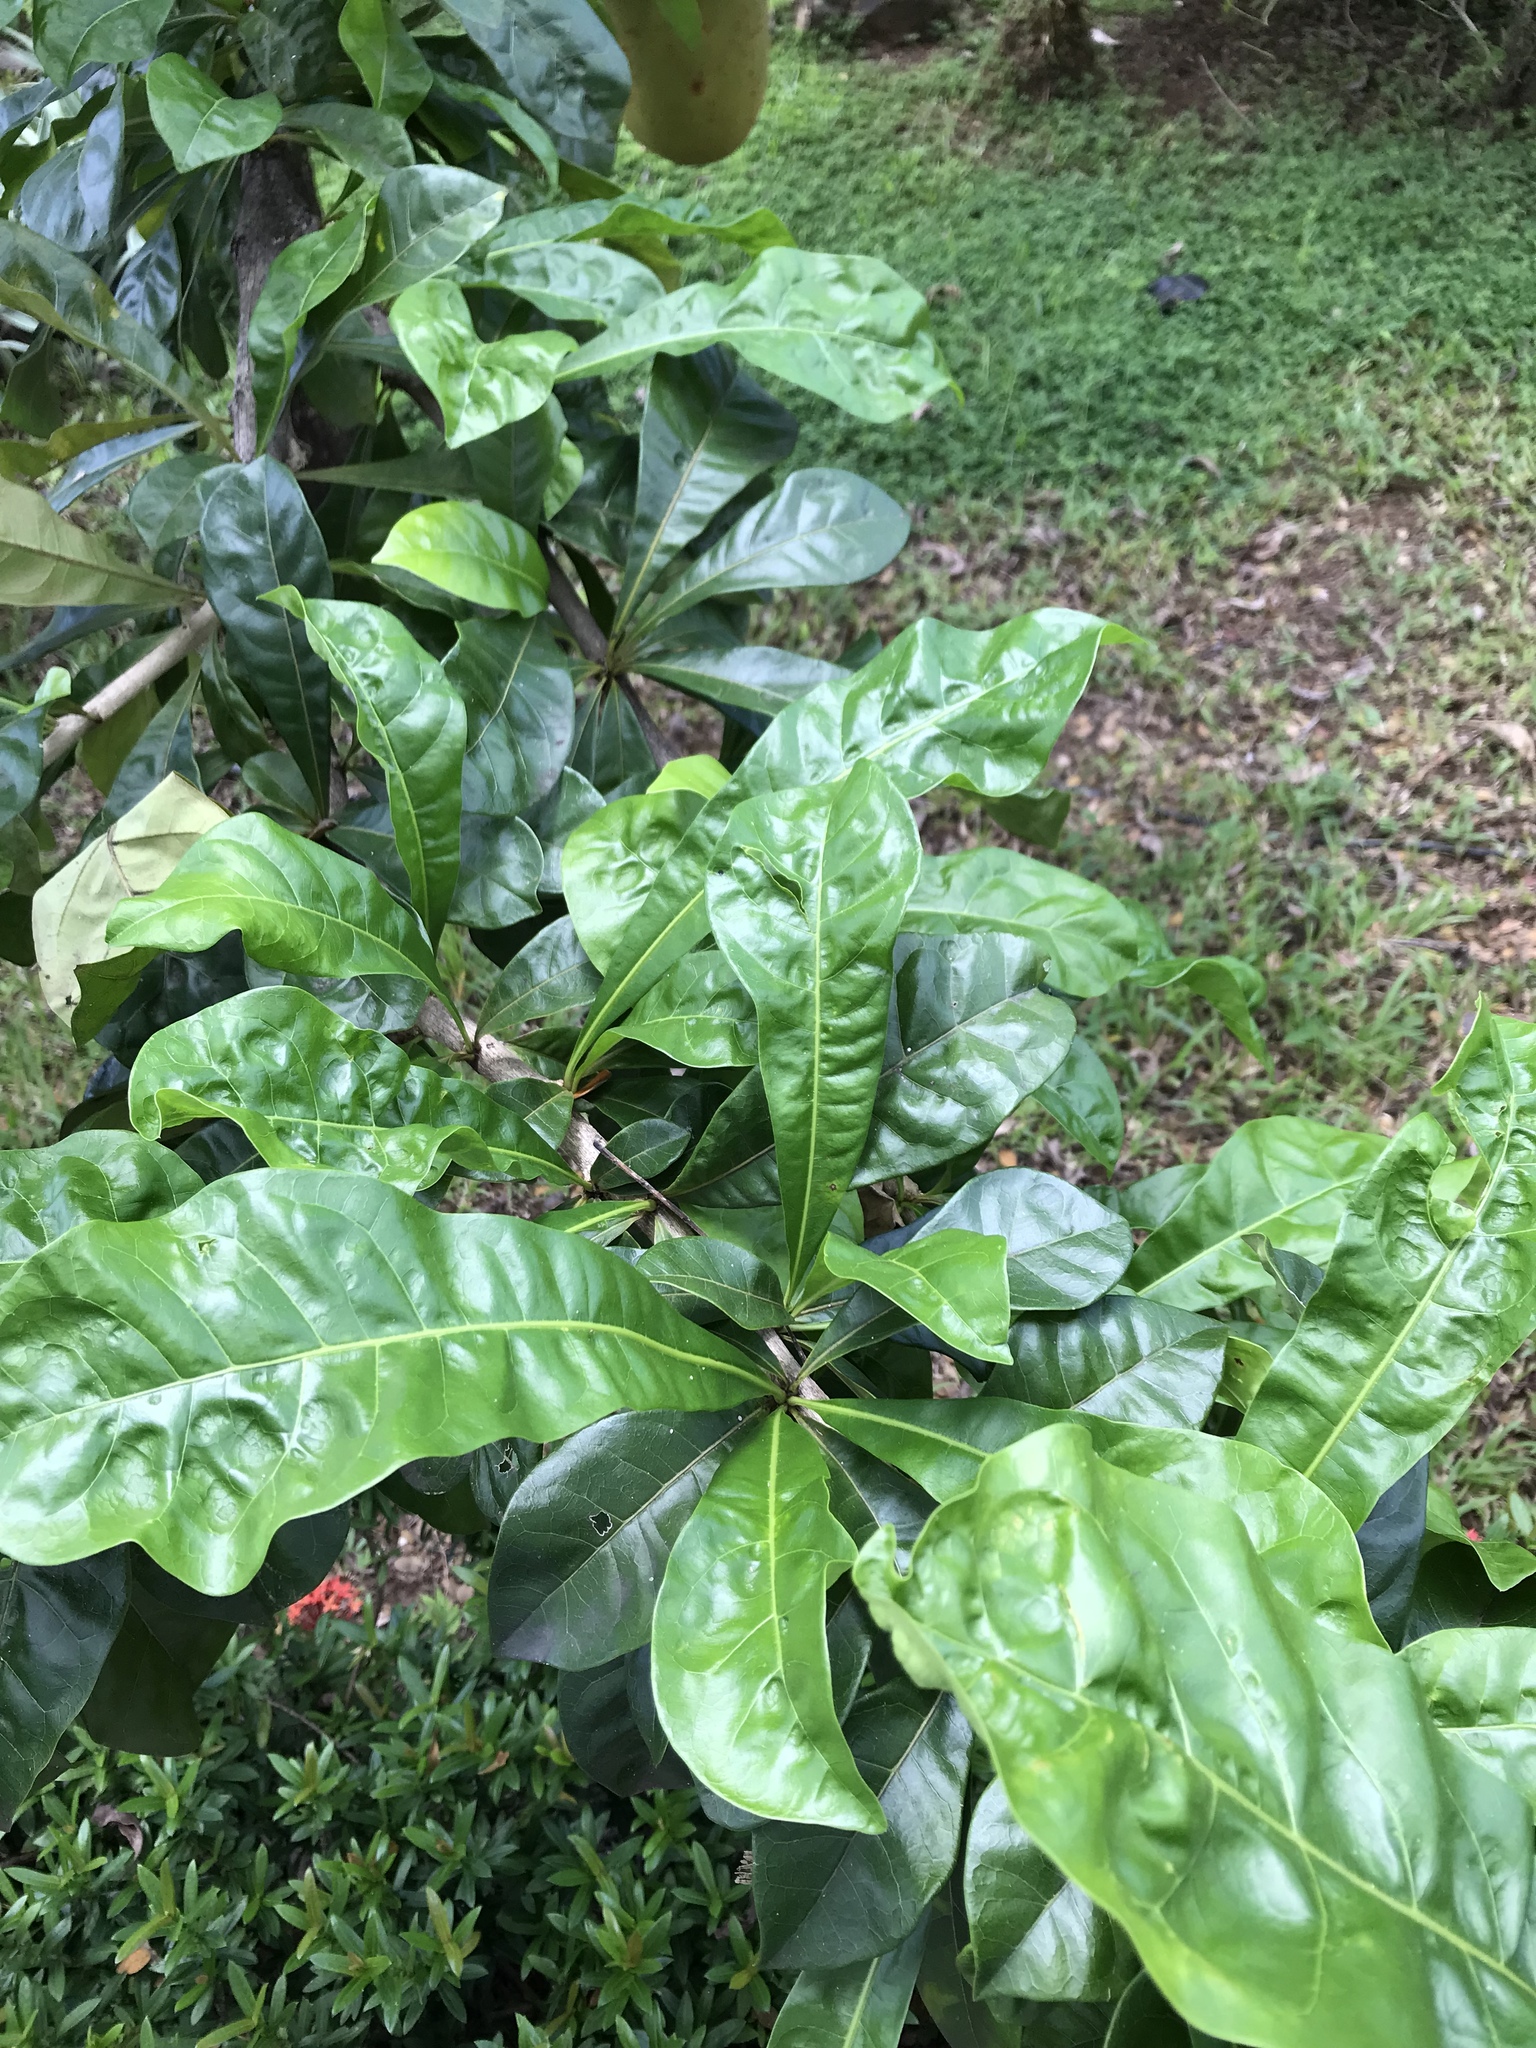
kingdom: Plantae
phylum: Tracheophyta
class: Magnoliopsida
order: Lamiales
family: Bignoniaceae
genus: Crescentia
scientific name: Crescentia cujete
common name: Calabash
